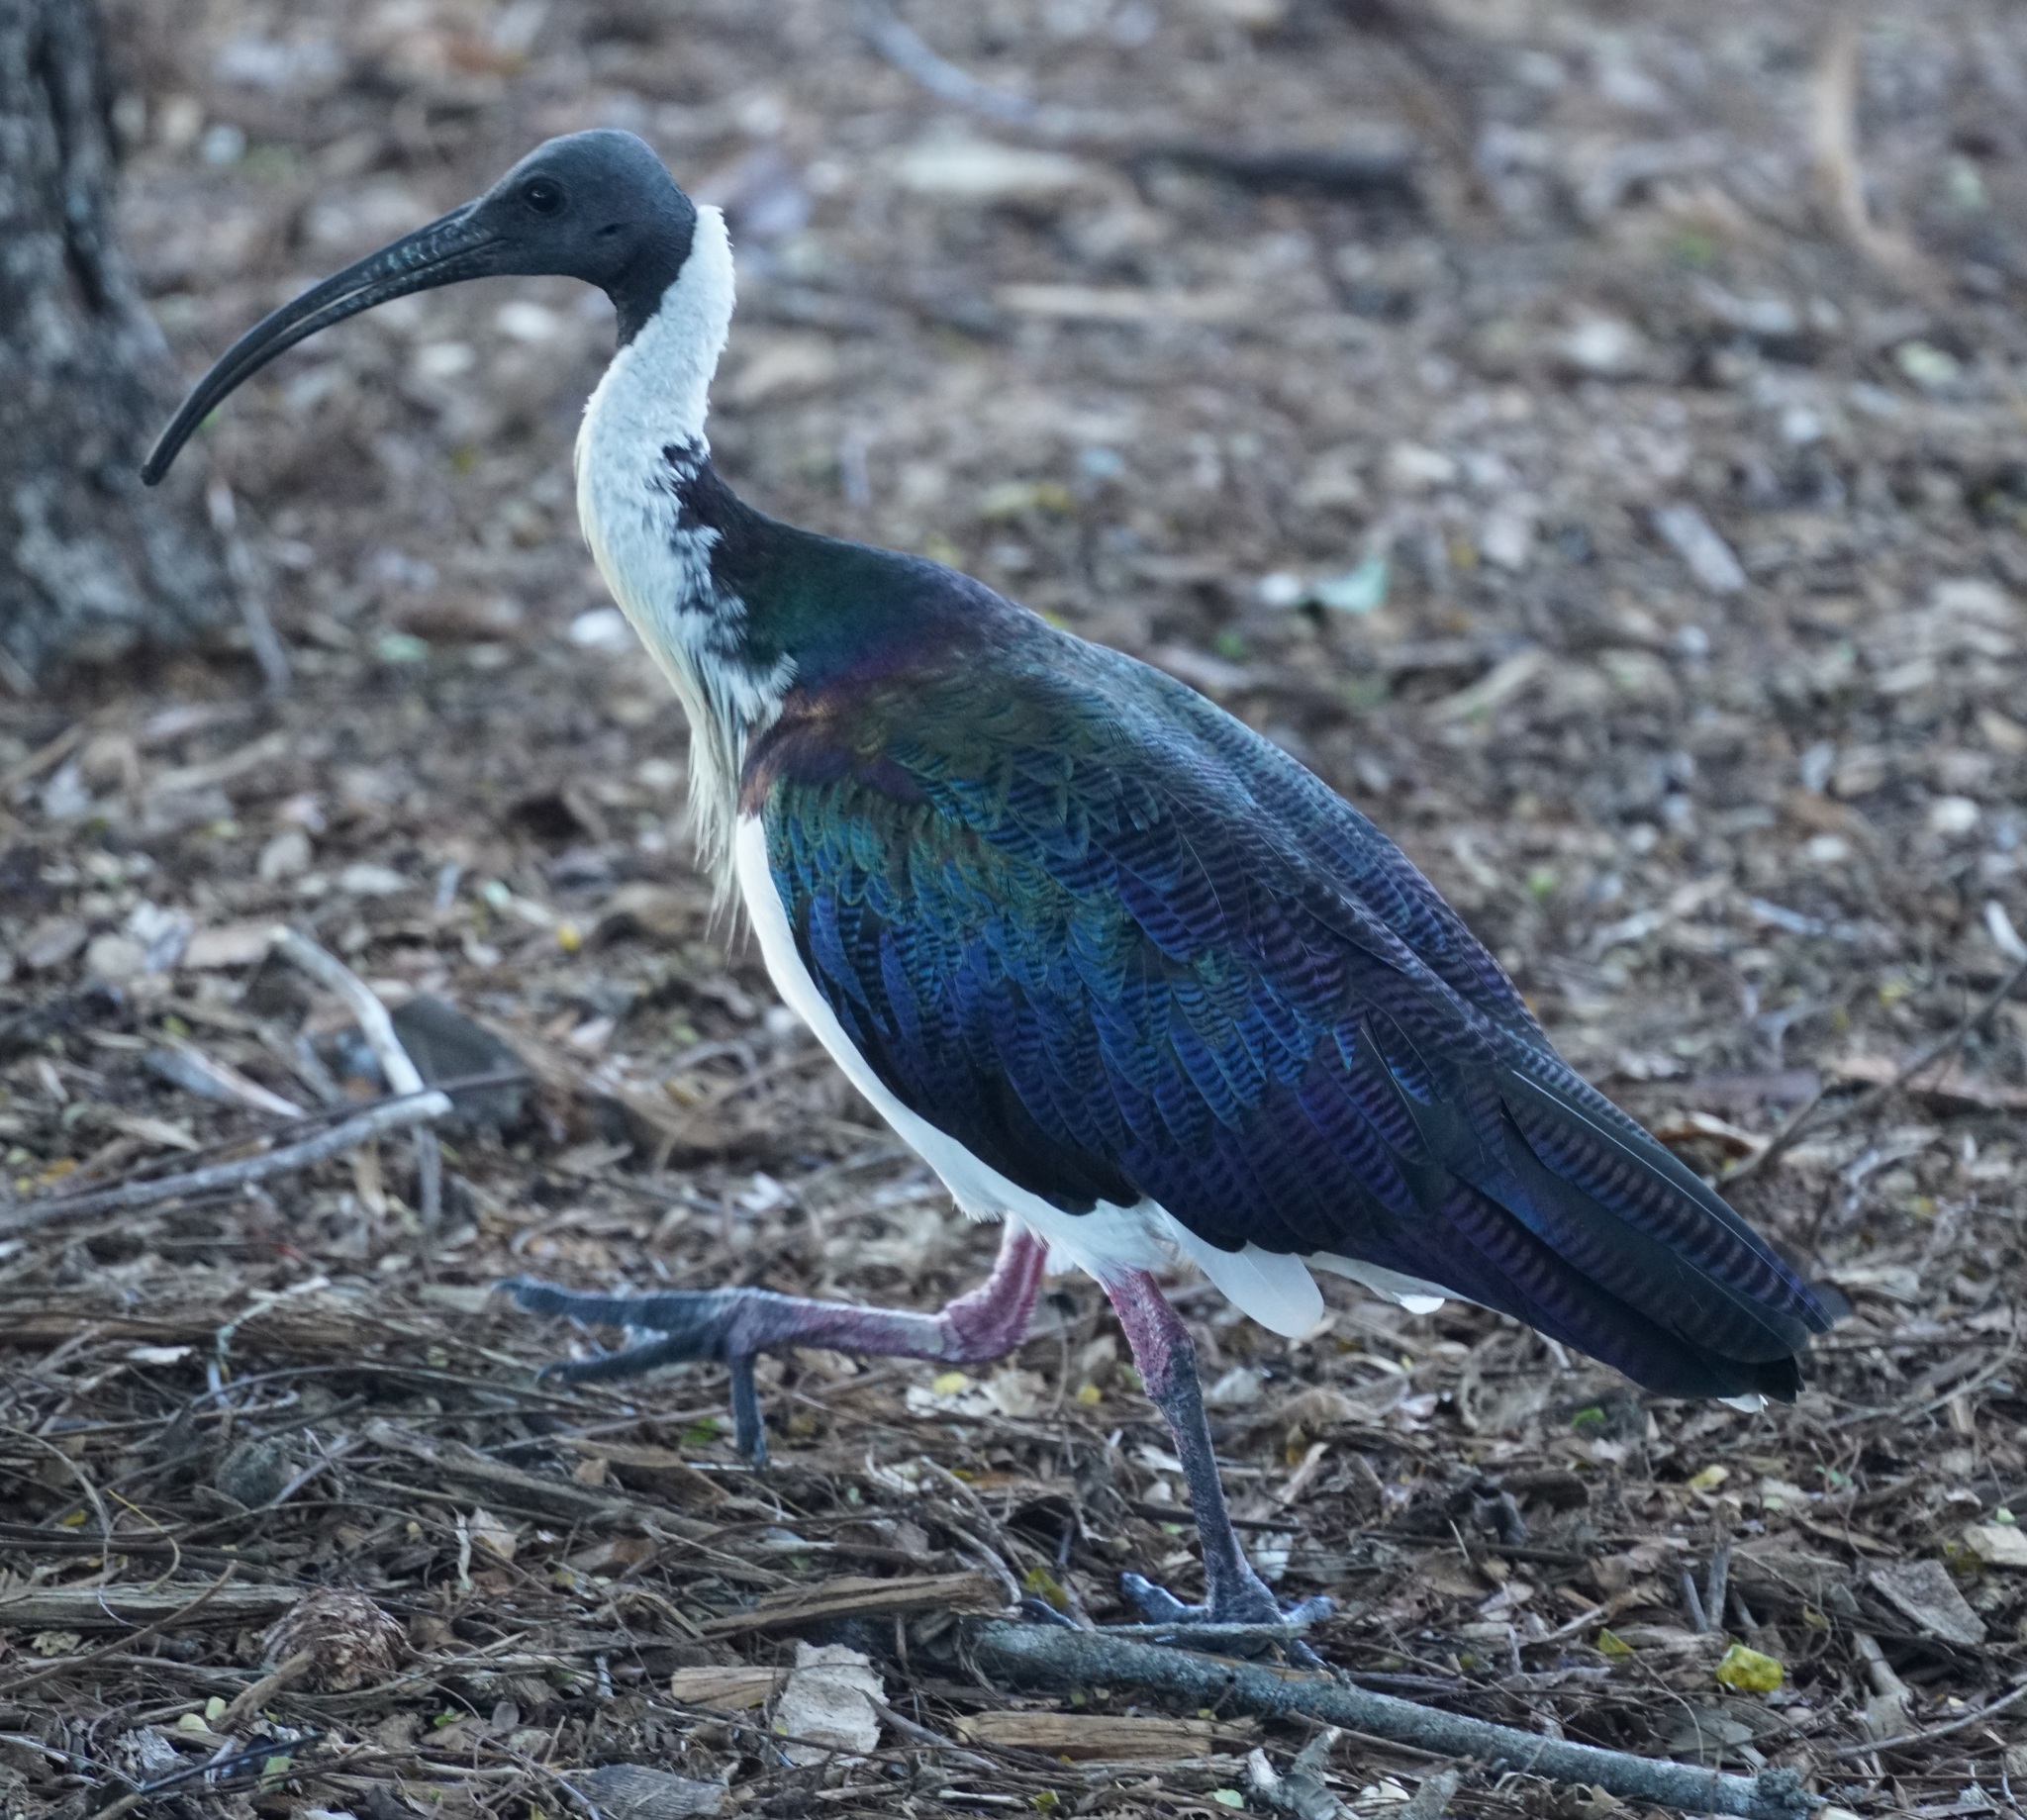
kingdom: Animalia
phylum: Chordata
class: Aves
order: Pelecaniformes
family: Threskiornithidae
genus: Threskiornis
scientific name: Threskiornis spinicollis
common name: Straw-necked ibis
